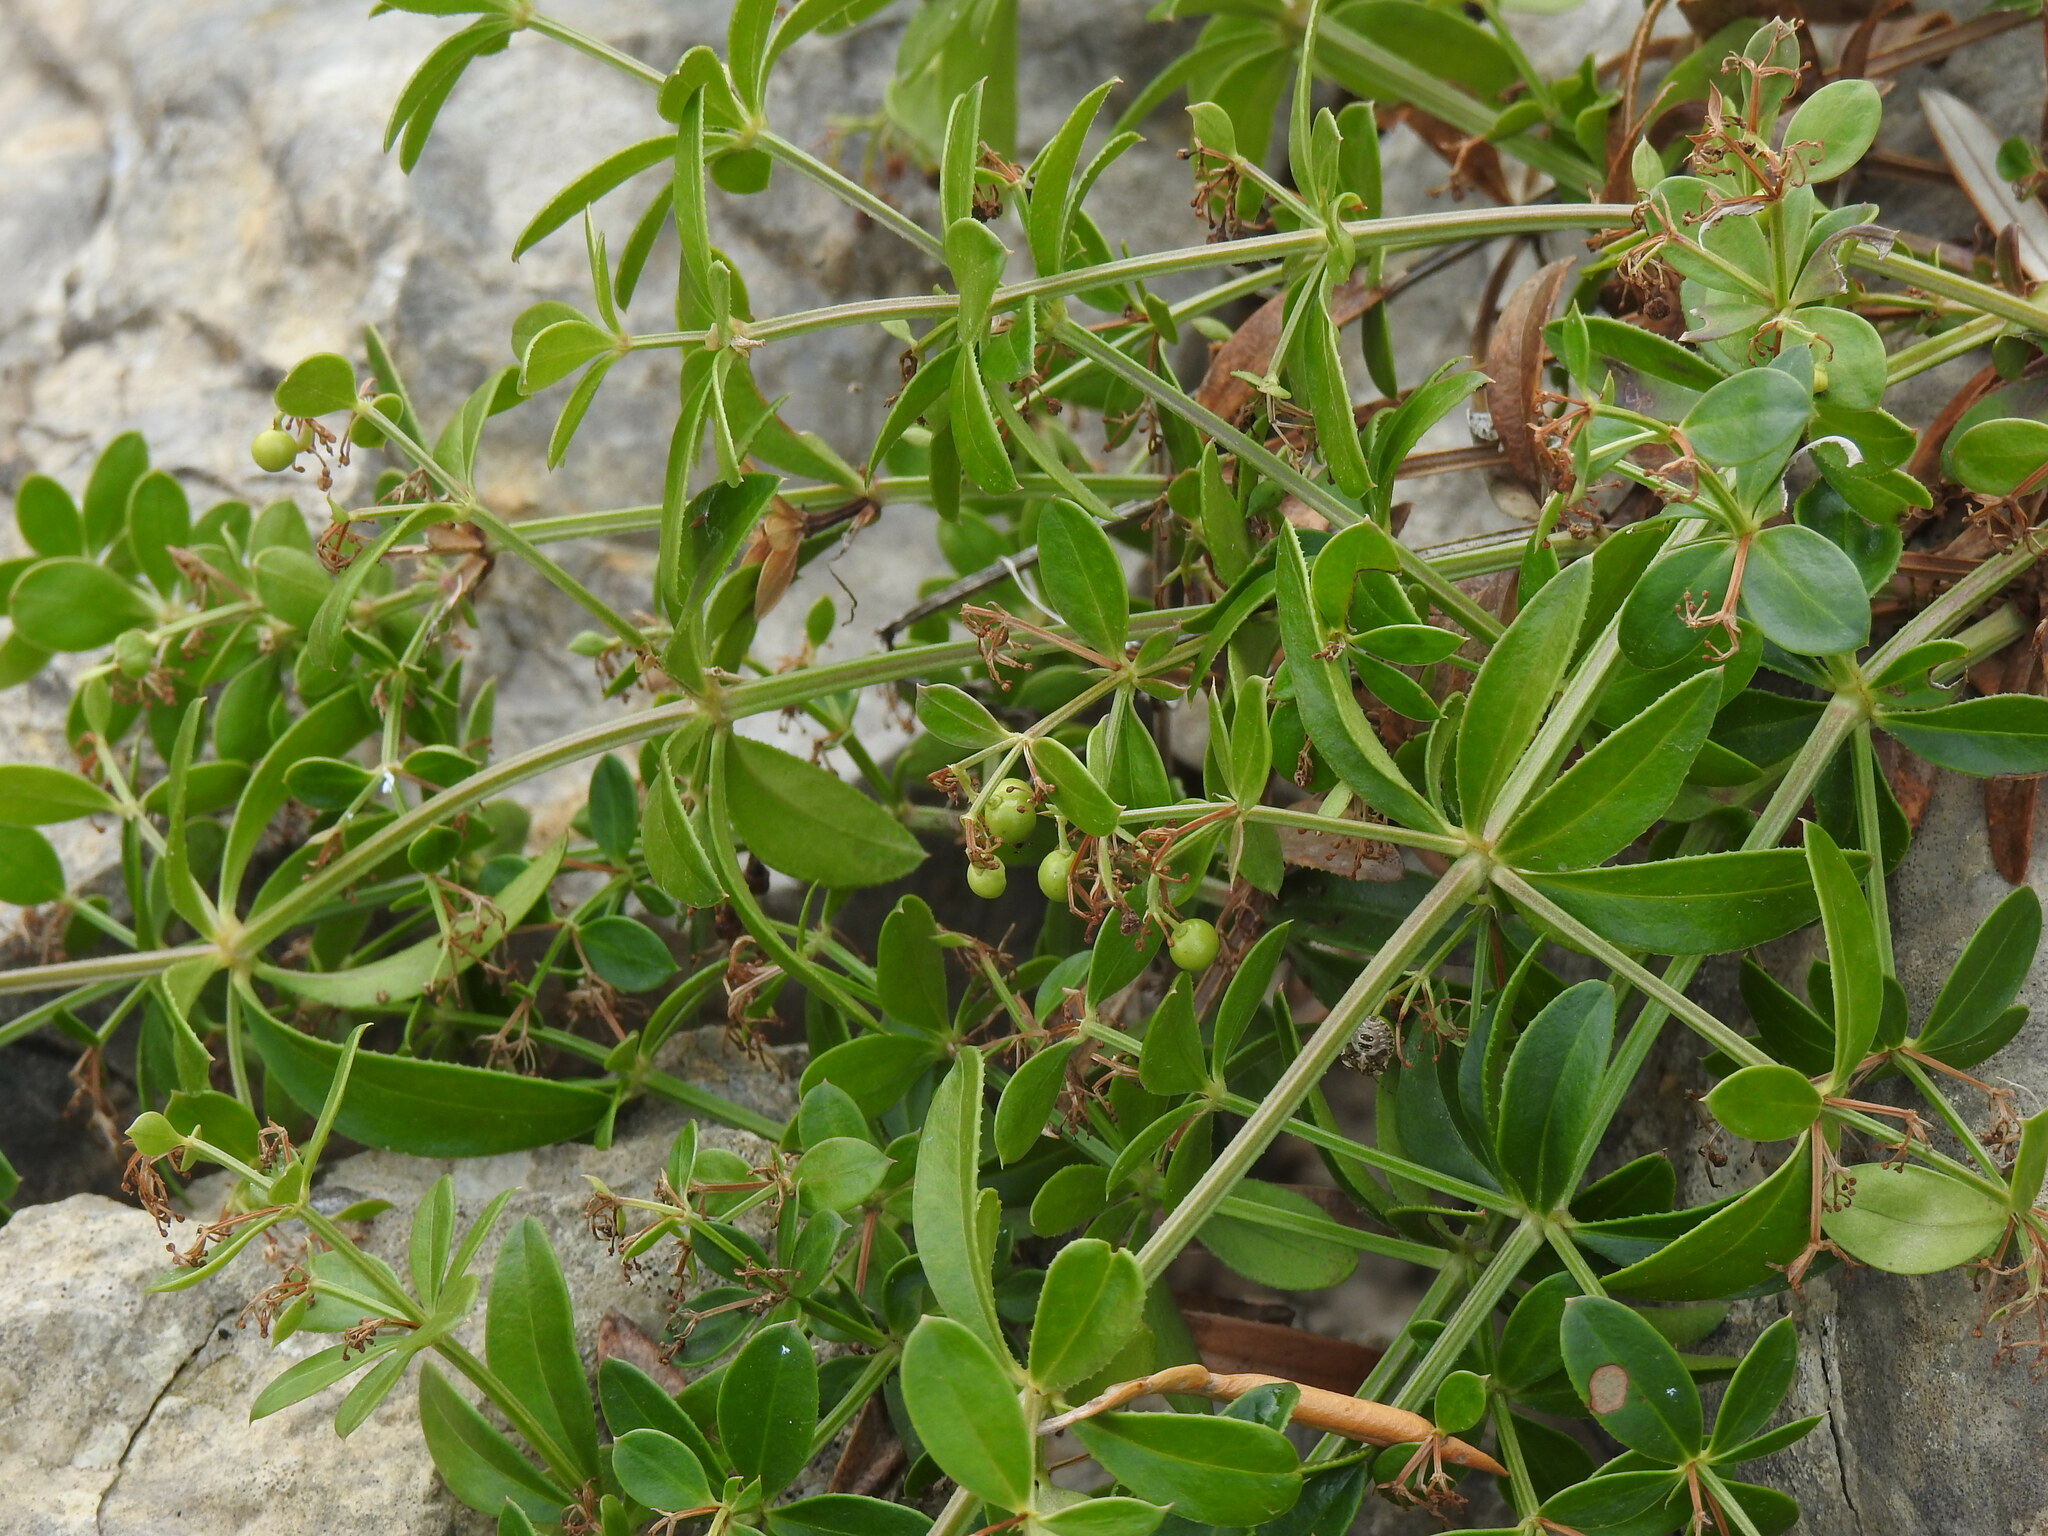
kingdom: Plantae
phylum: Tracheophyta
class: Magnoliopsida
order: Gentianales
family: Rubiaceae
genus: Rubia
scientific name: Rubia peregrina
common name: Wild madder
